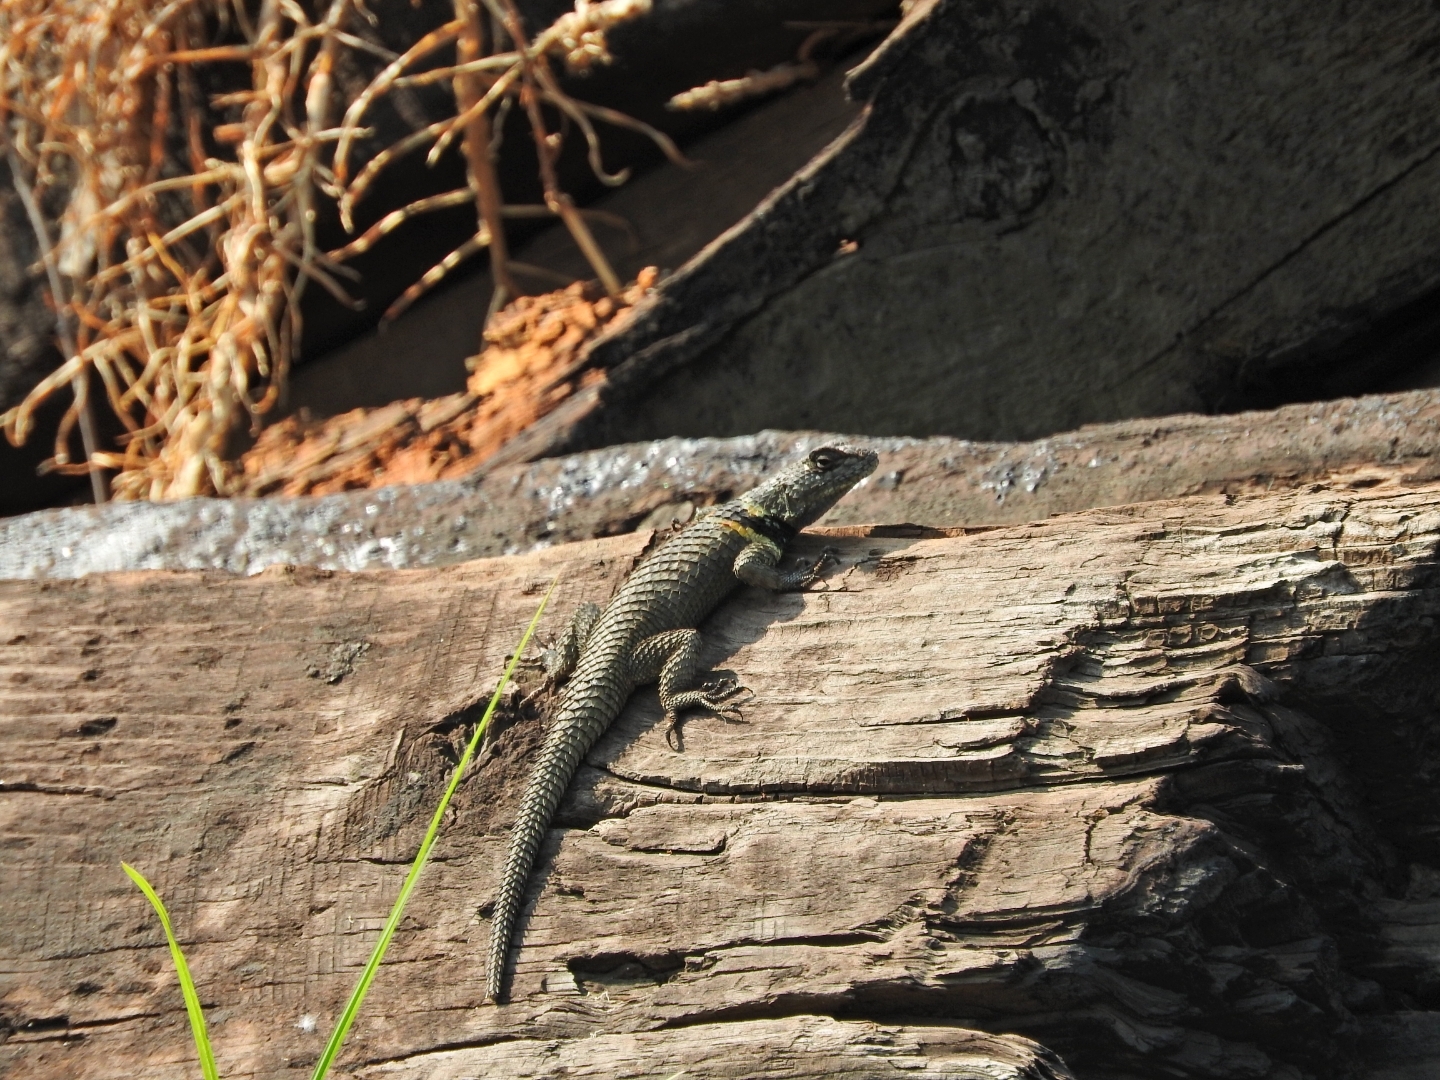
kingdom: Animalia
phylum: Chordata
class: Squamata
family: Phrynosomatidae
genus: Sceloporus
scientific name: Sceloporus torquatus
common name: Central plateau torquate lizard [melanogaster]
